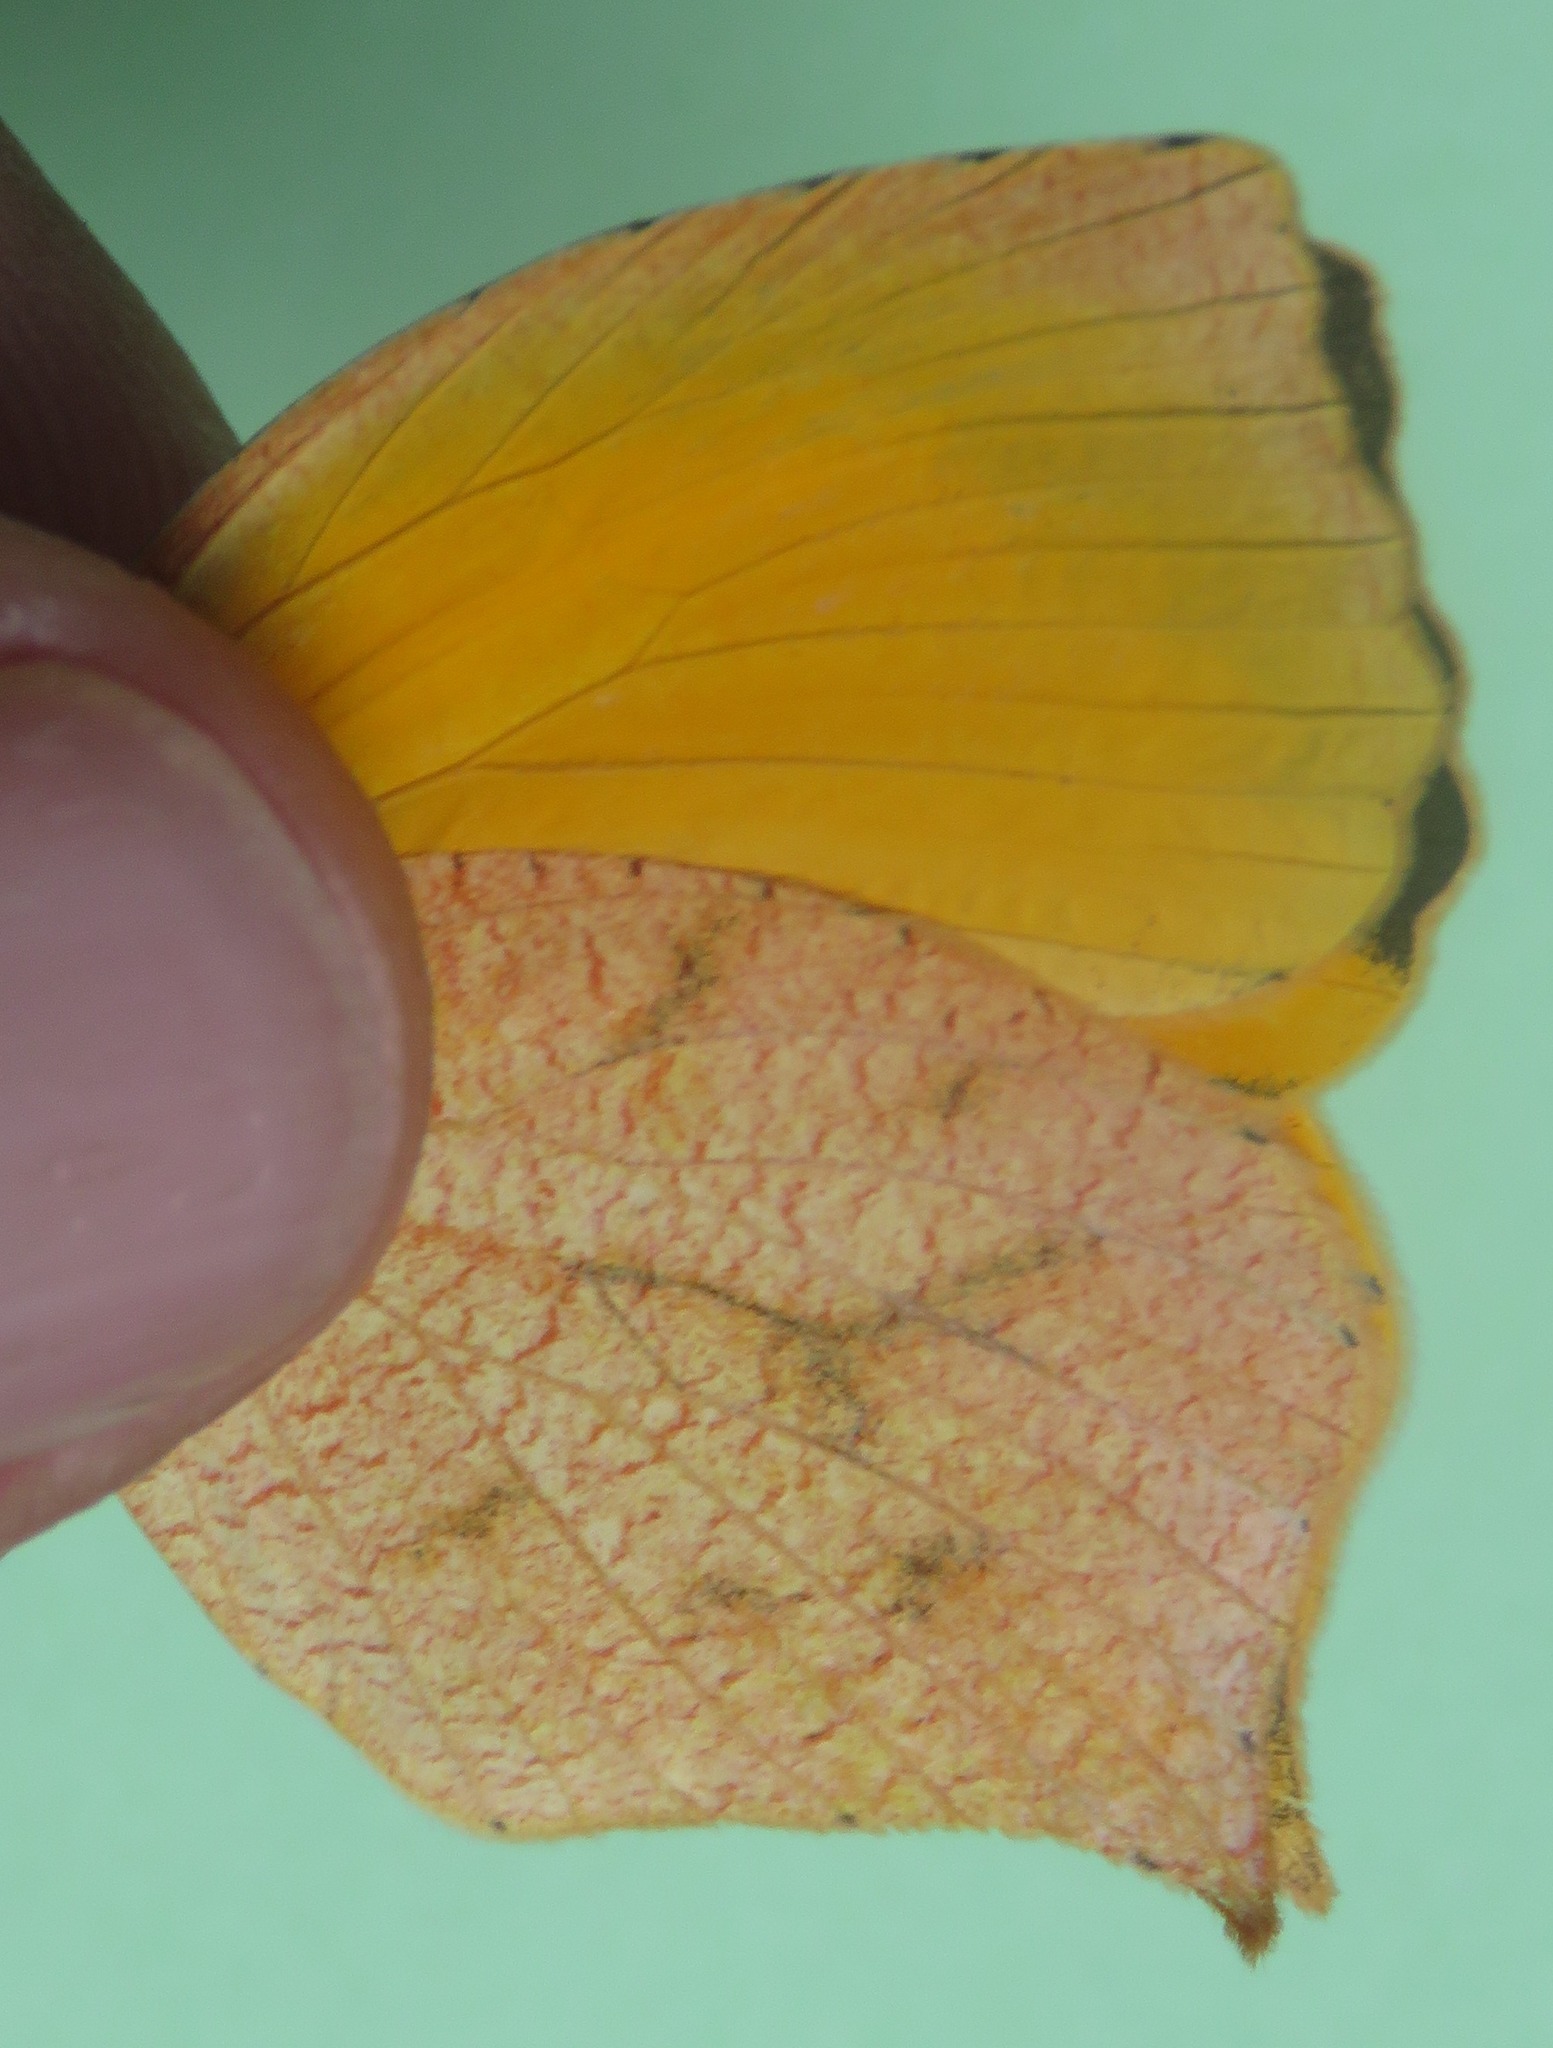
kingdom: Animalia
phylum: Arthropoda
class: Insecta
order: Lepidoptera
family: Pieridae
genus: Pyrisitia
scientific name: Pyrisitia proterpia
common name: Tailed orange
